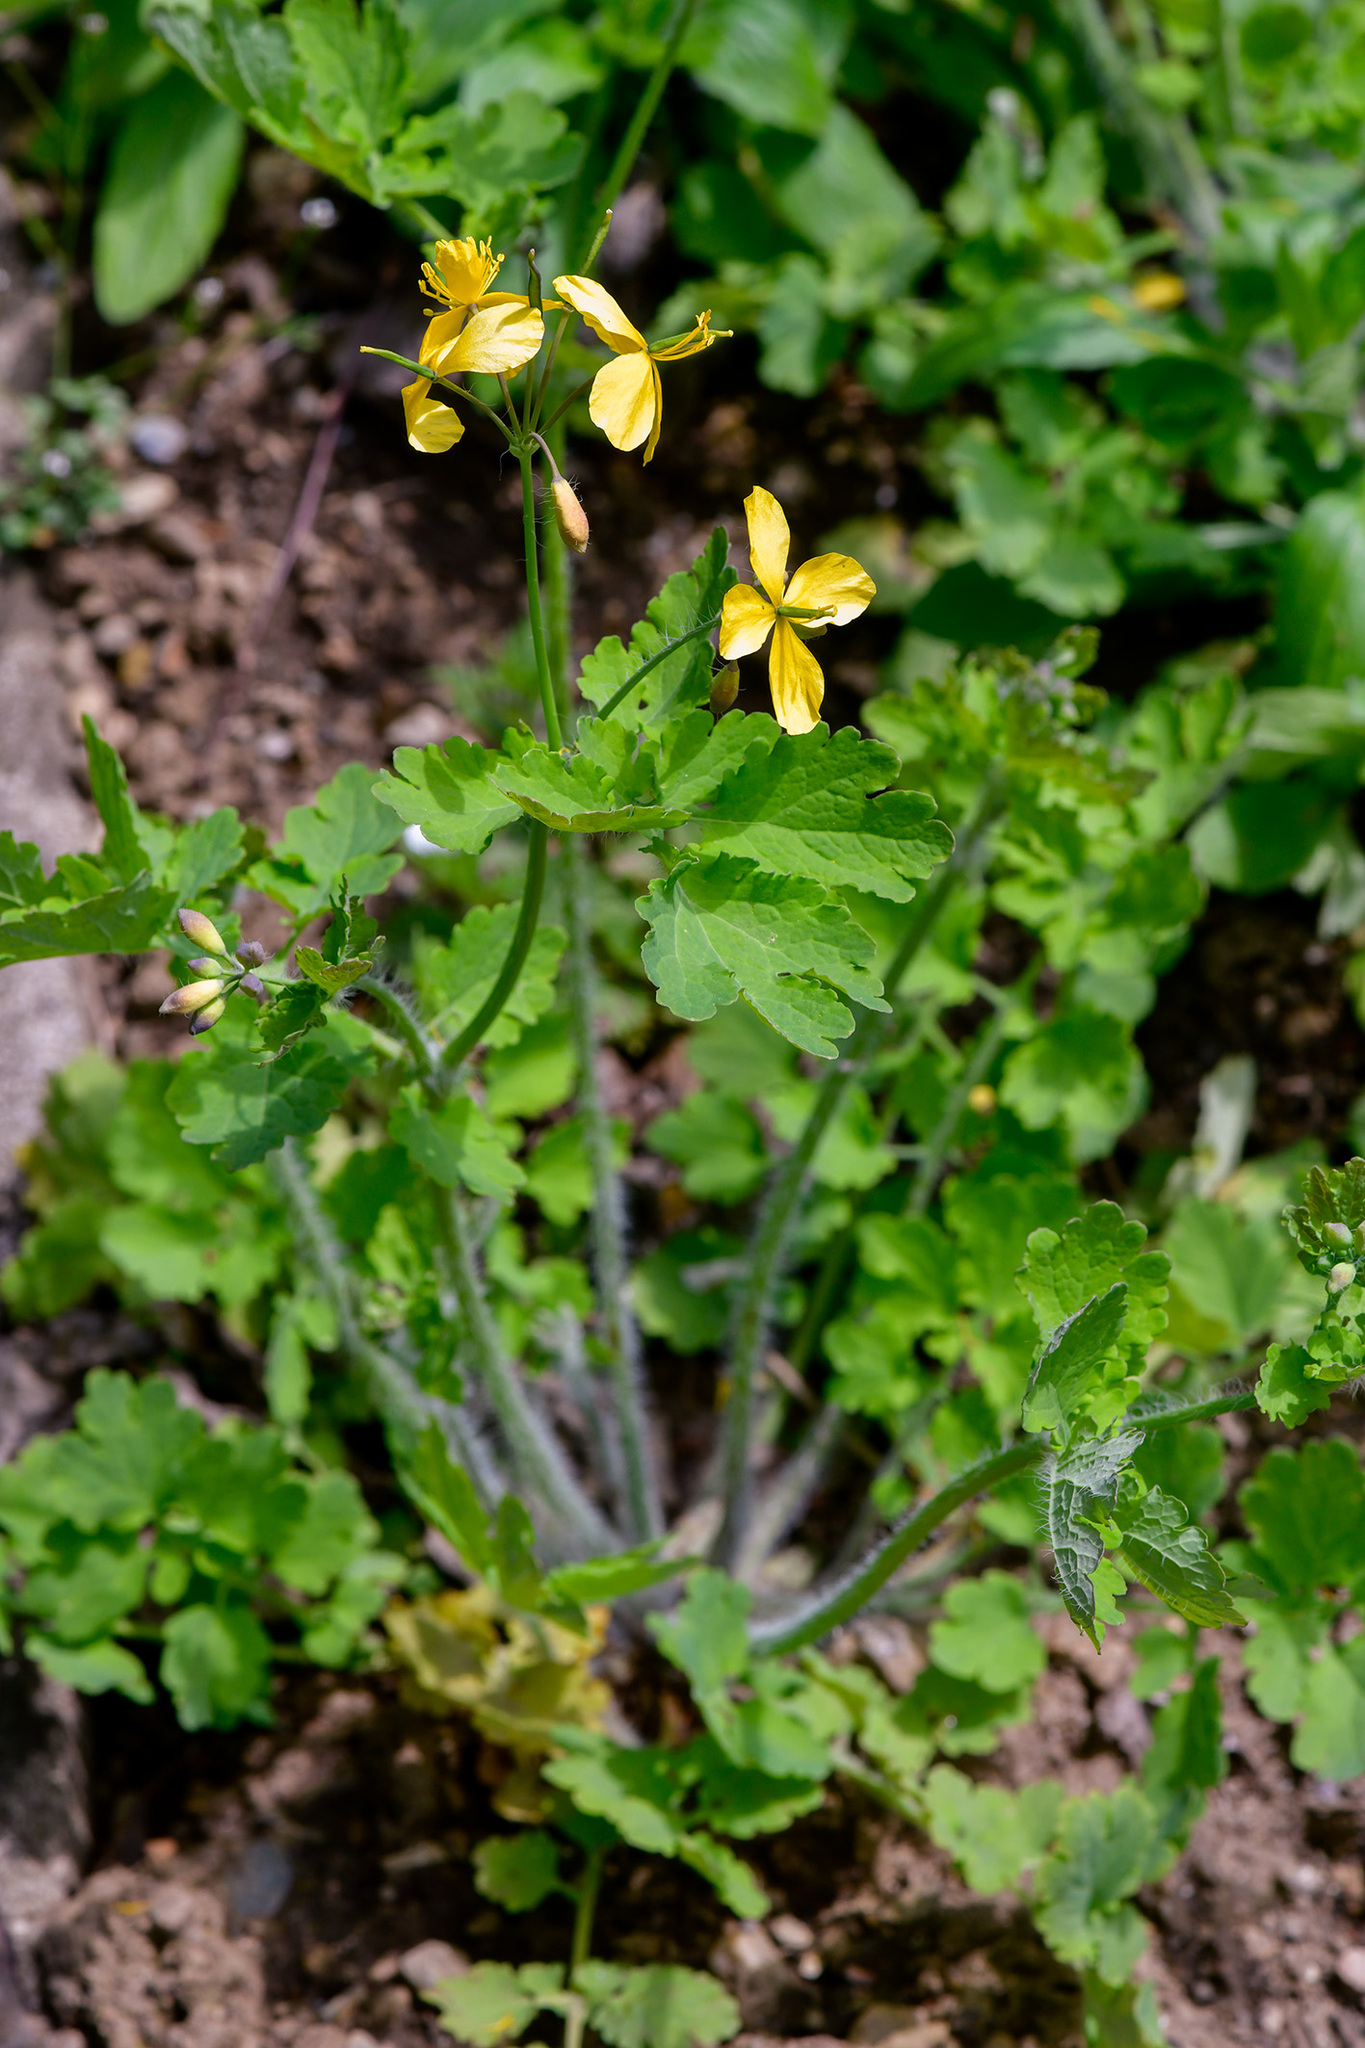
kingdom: Plantae
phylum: Tracheophyta
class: Magnoliopsida
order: Ranunculales
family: Papaveraceae
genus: Chelidonium
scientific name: Chelidonium majus
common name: Greater celandine
